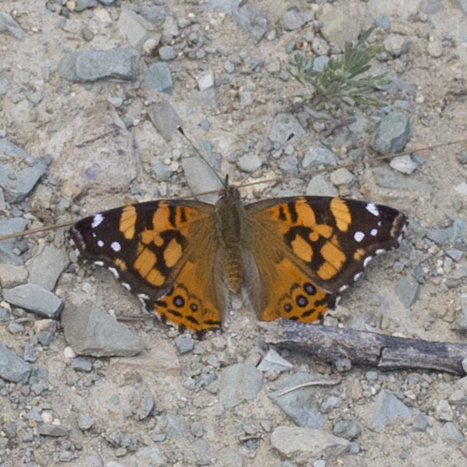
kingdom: Animalia
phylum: Arthropoda
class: Insecta
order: Lepidoptera
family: Nymphalidae
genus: Vanessa
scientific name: Vanessa annabella
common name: West coast lady
